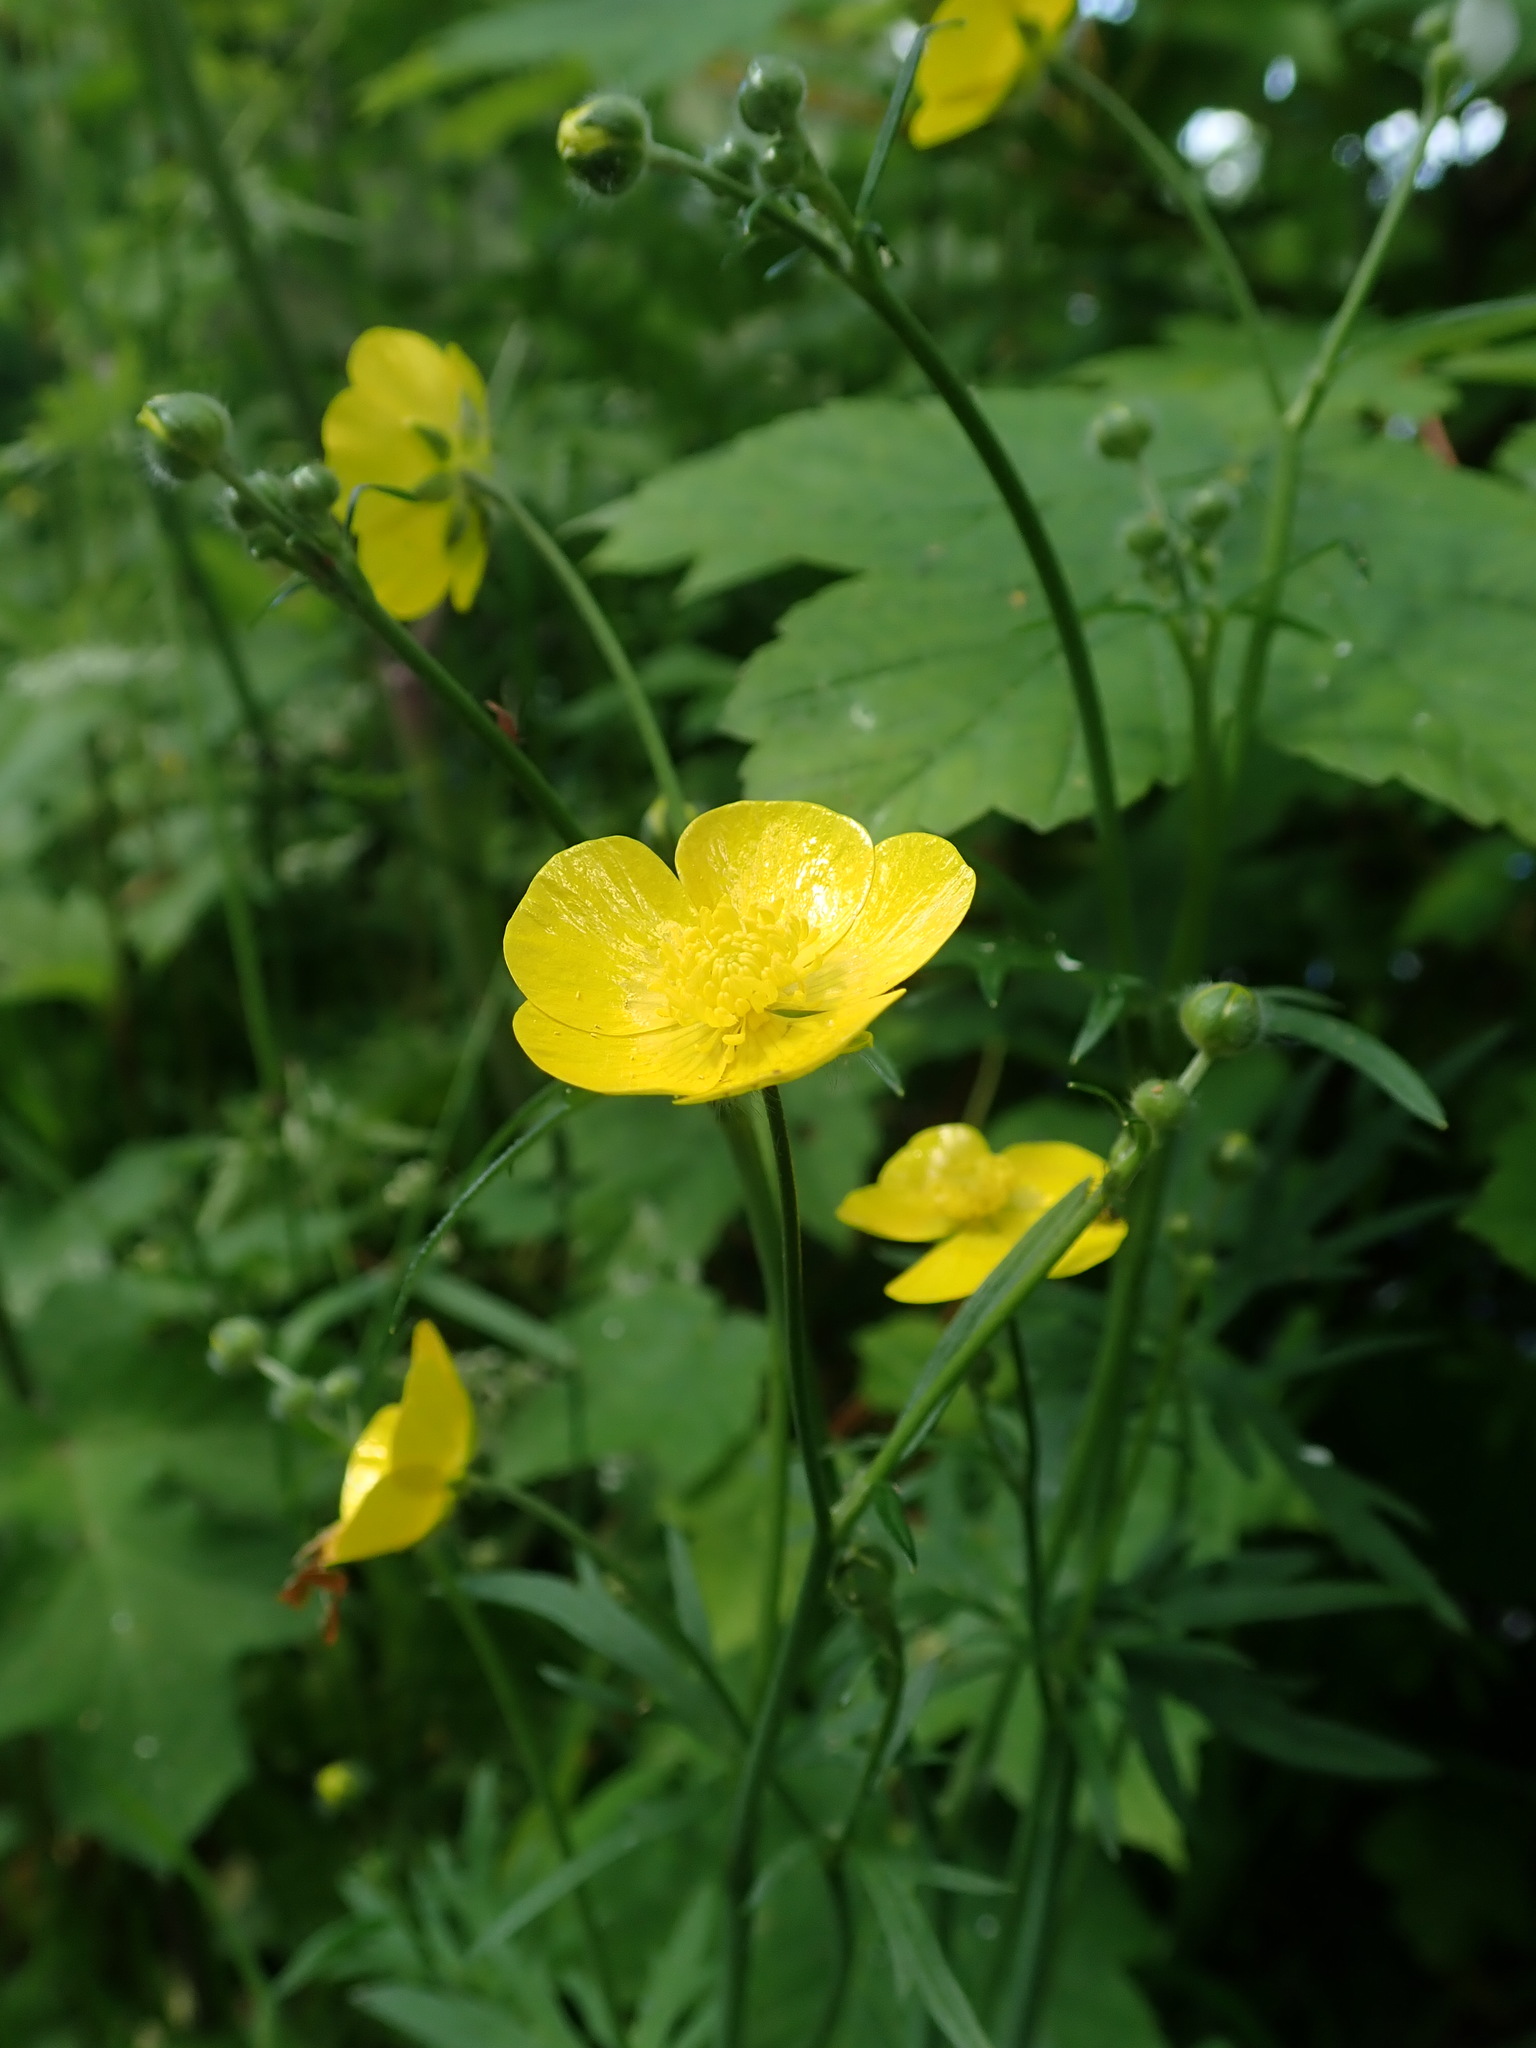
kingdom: Plantae
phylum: Tracheophyta
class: Magnoliopsida
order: Ranunculales
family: Ranunculaceae
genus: Ranunculus
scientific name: Ranunculus acris
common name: Meadow buttercup
